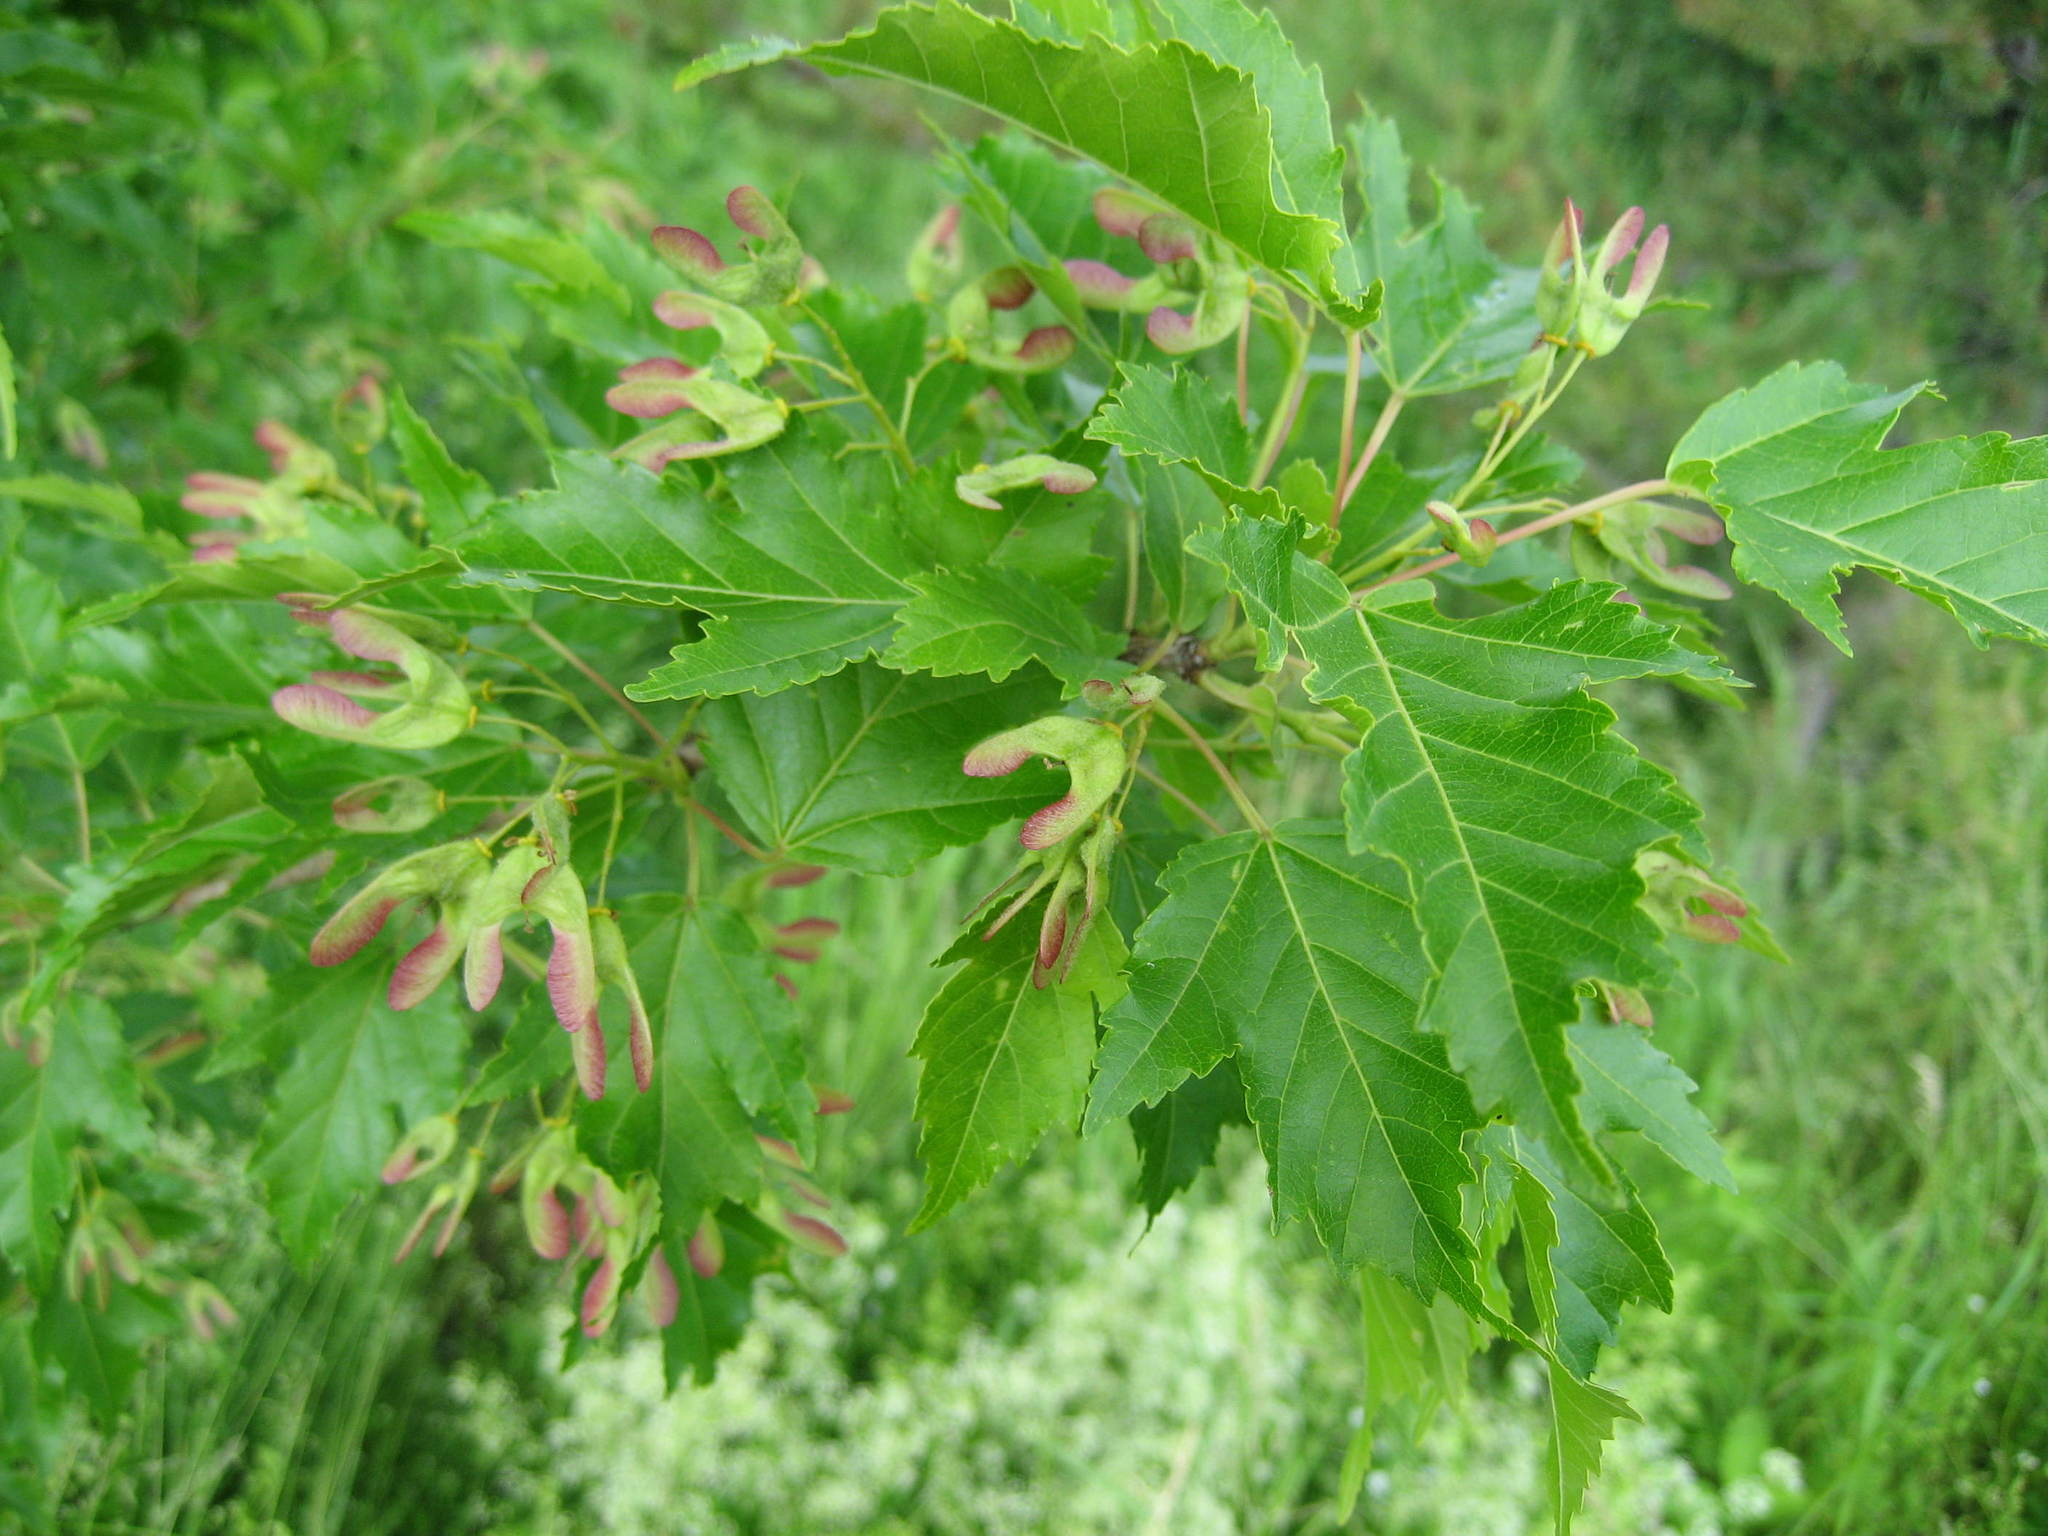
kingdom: Plantae
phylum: Tracheophyta
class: Magnoliopsida
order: Sapindales
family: Sapindaceae
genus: Acer
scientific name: Acer tataricum
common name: Tartar maple
